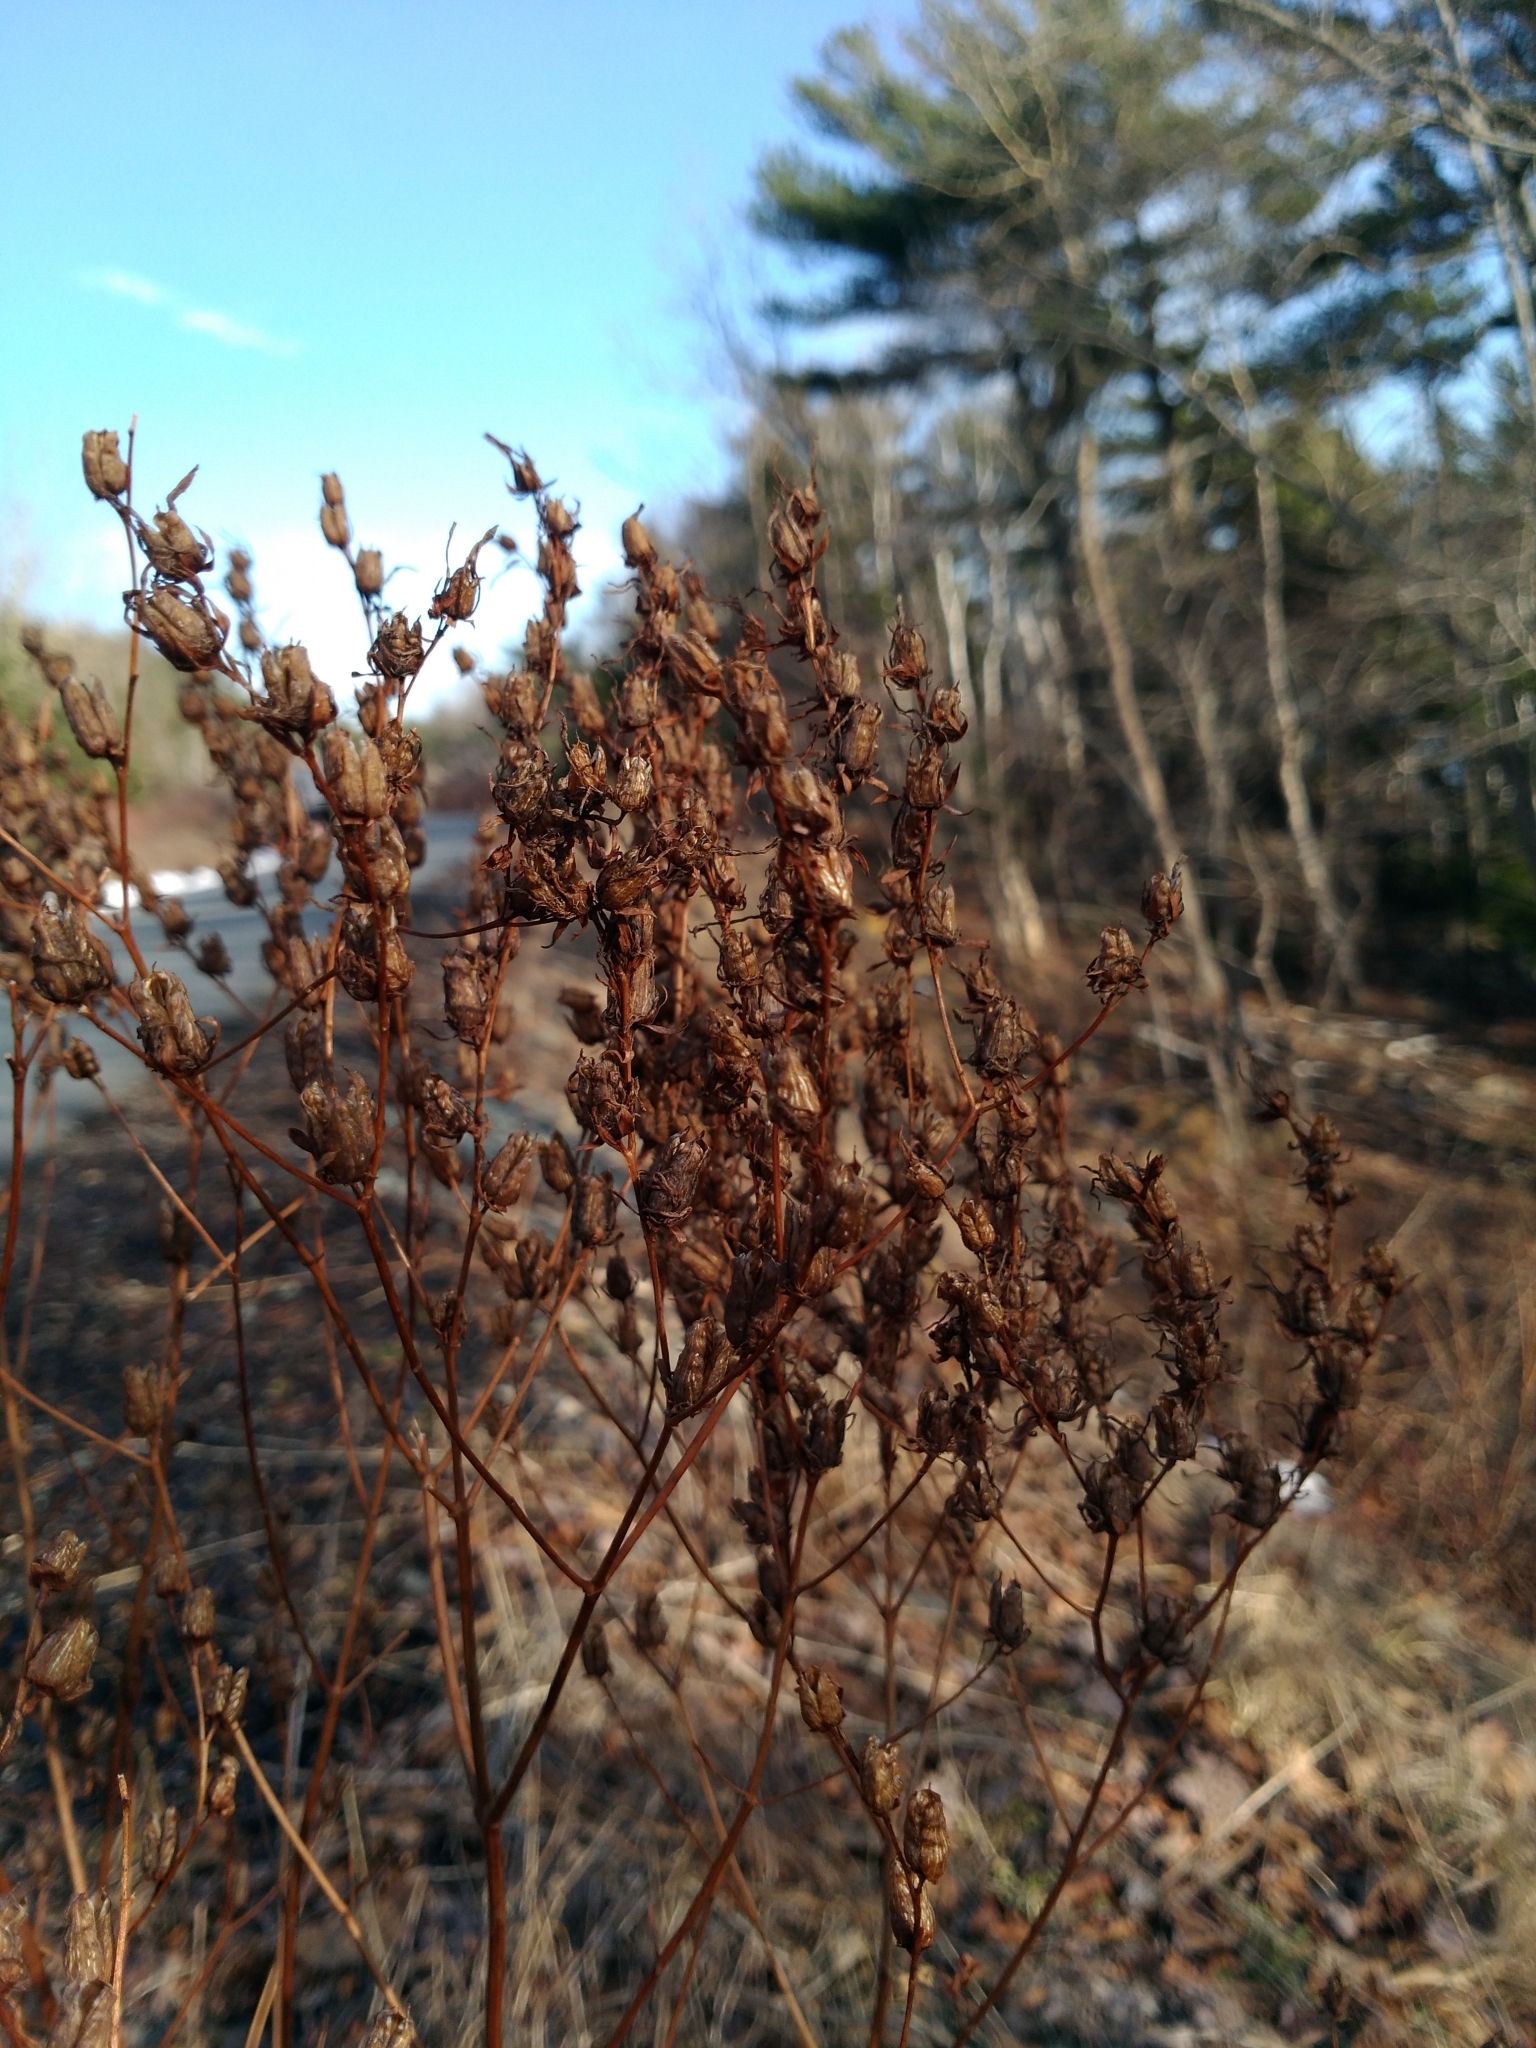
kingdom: Plantae
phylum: Tracheophyta
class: Magnoliopsida
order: Malpighiales
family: Hypericaceae
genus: Hypericum
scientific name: Hypericum perforatum
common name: Common st. johnswort
